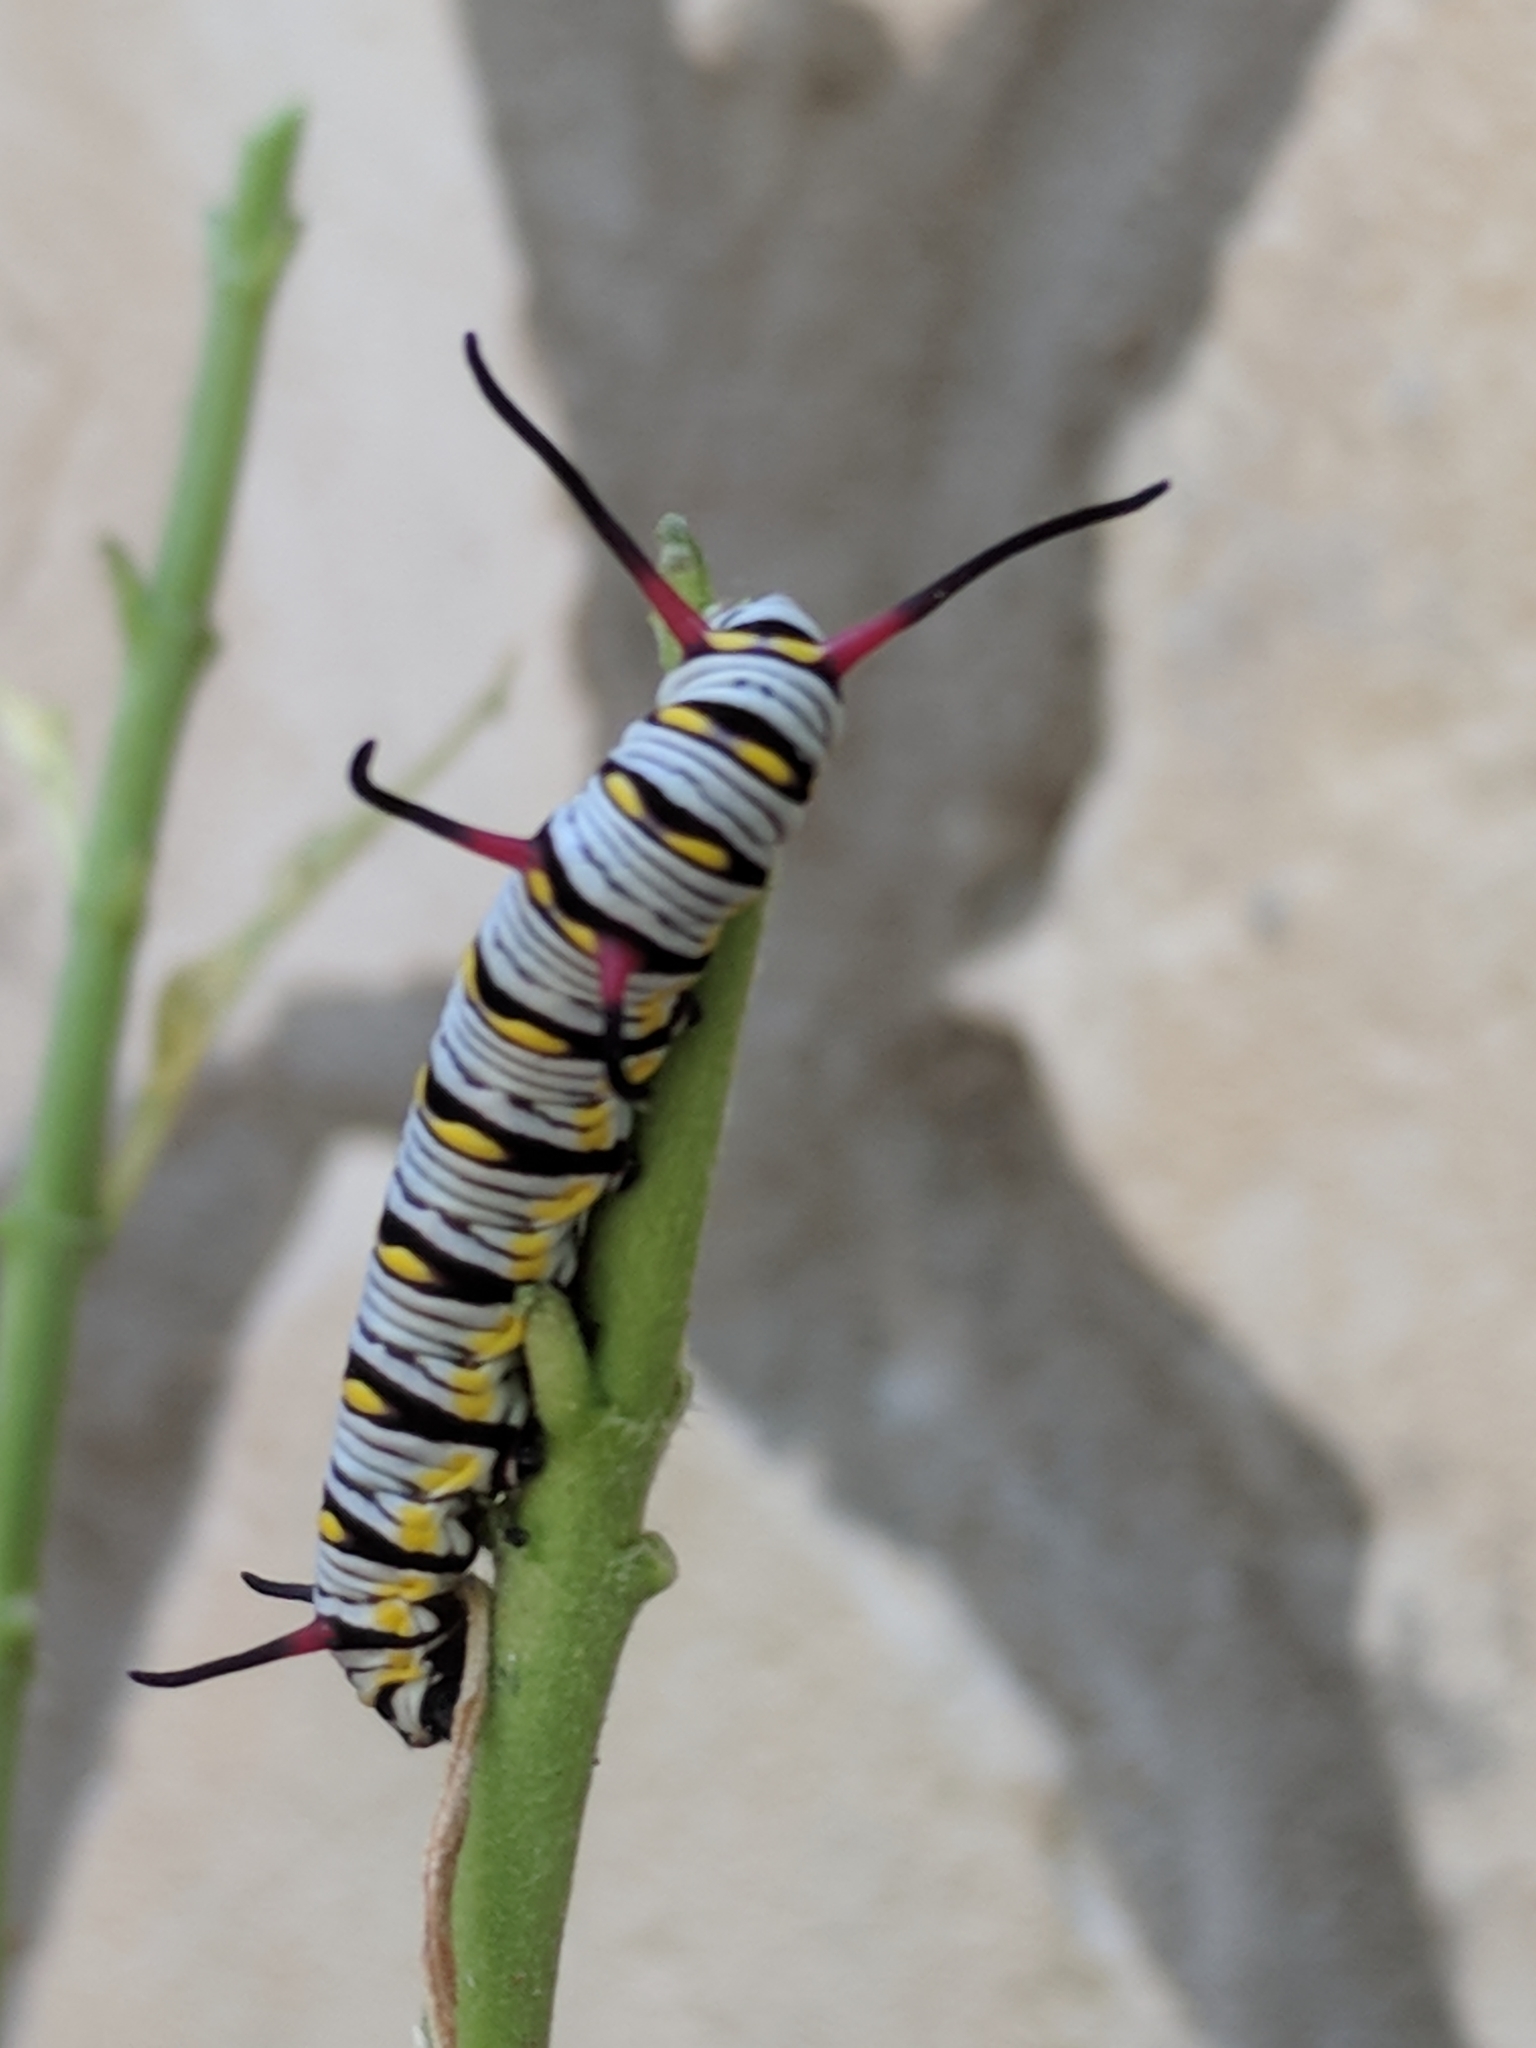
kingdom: Animalia
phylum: Arthropoda
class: Insecta
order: Lepidoptera
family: Nymphalidae
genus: Danaus
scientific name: Danaus gilippus
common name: Queen
